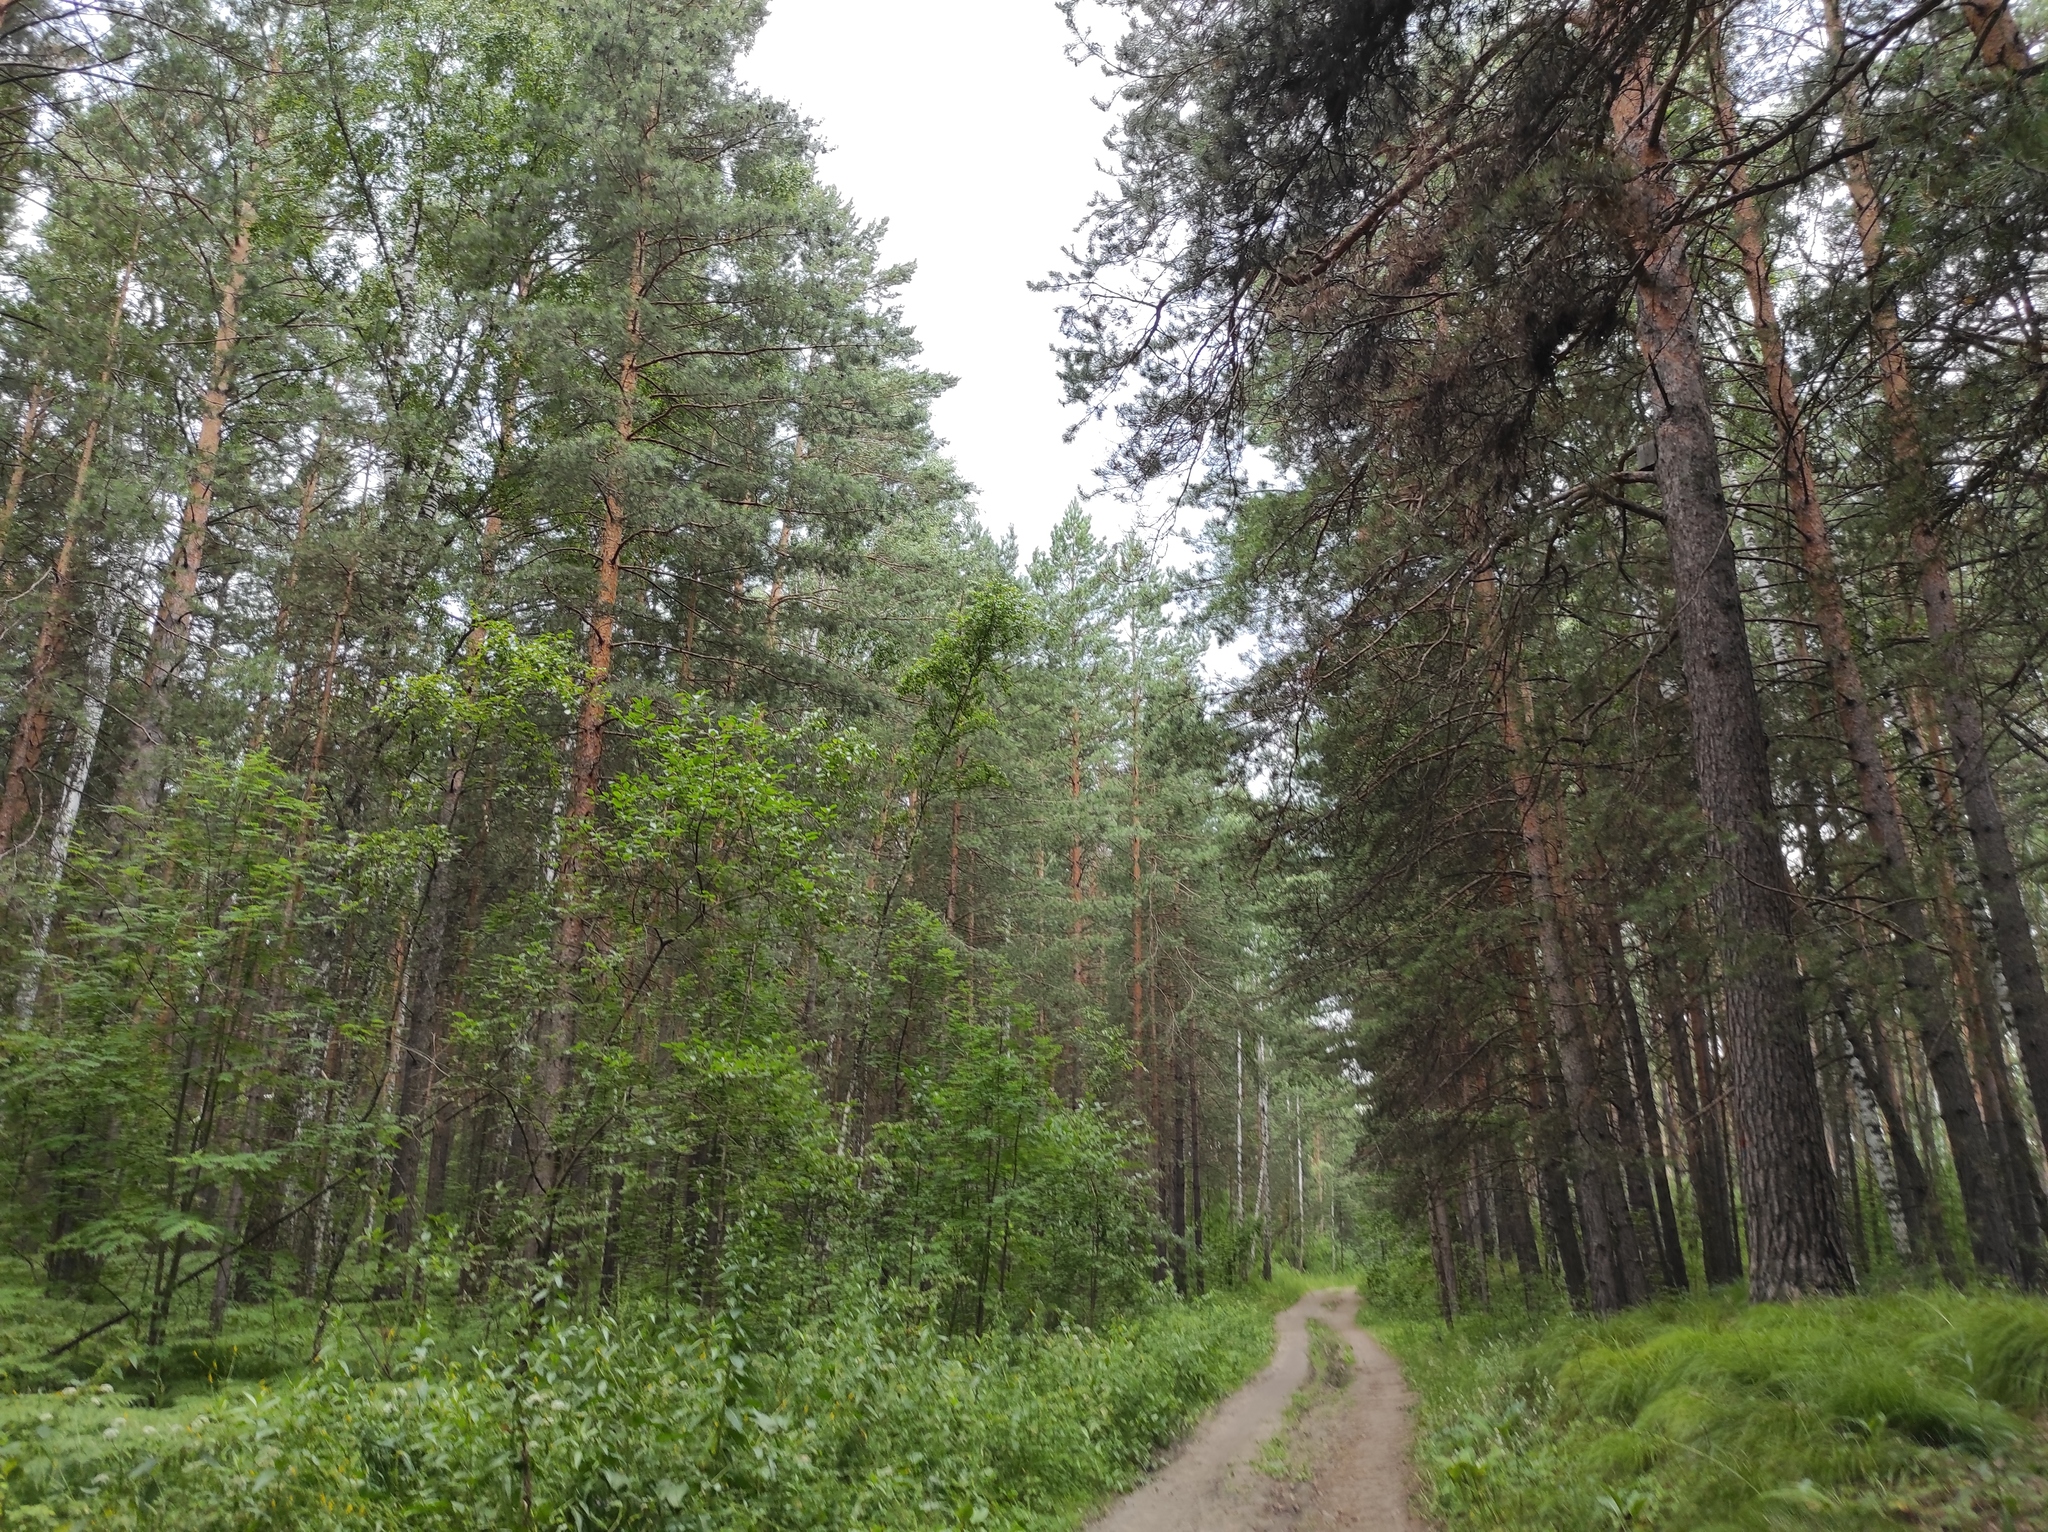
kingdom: Plantae
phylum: Tracheophyta
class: Pinopsida
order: Pinales
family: Pinaceae
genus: Pinus
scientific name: Pinus sylvestris
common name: Scots pine
